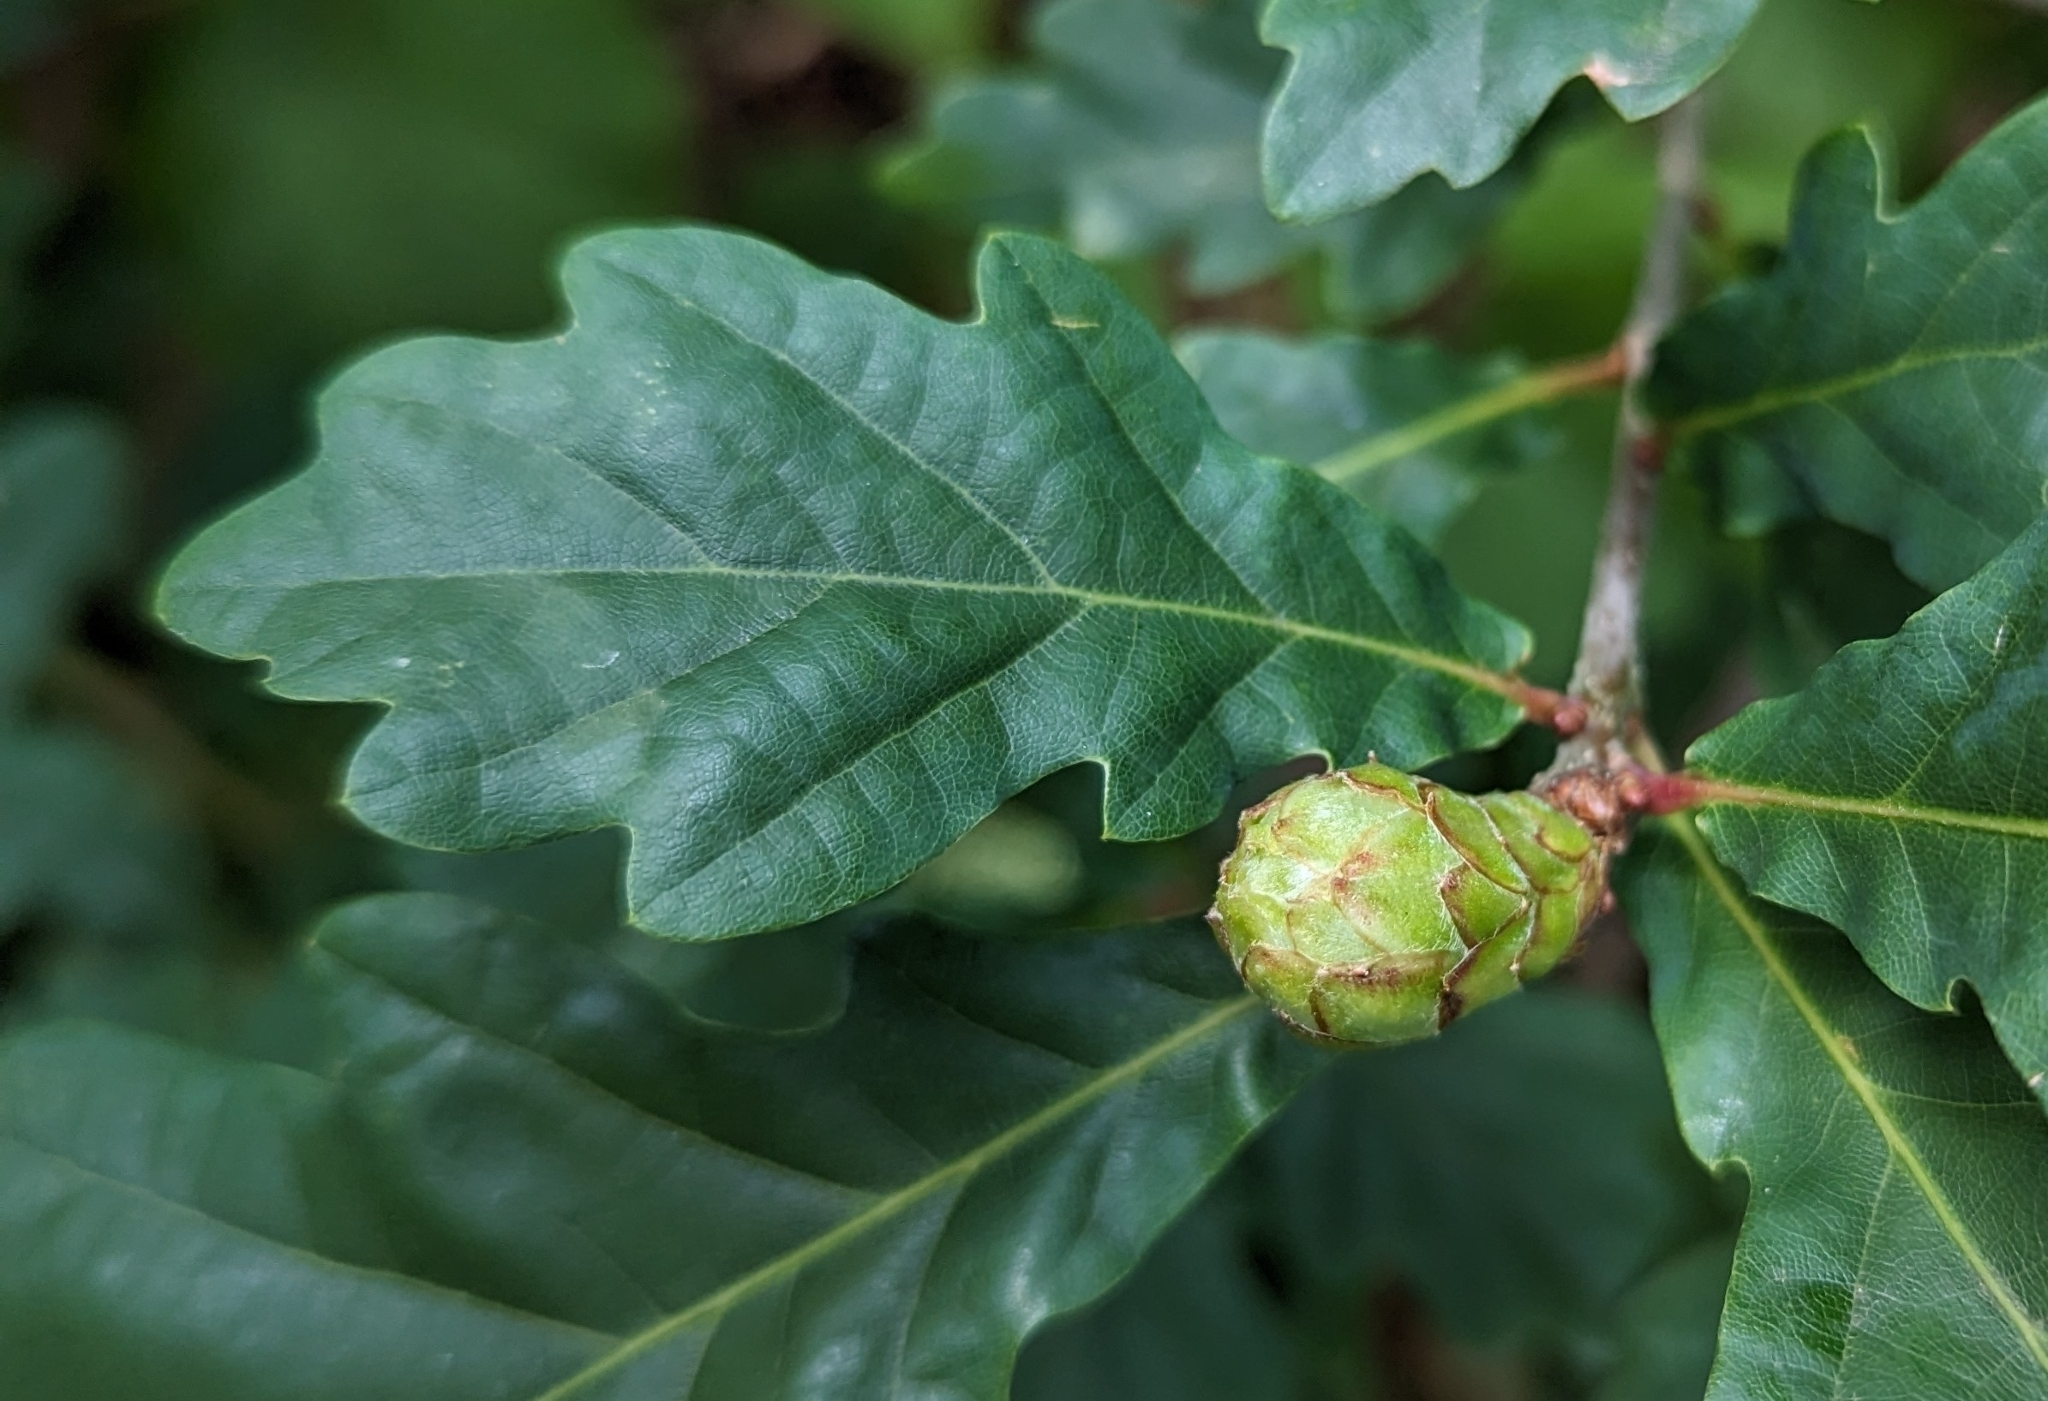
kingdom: Animalia
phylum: Arthropoda
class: Insecta
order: Hymenoptera
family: Cynipidae
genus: Andricus
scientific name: Andricus foecundatrix
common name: Artichoke gall
